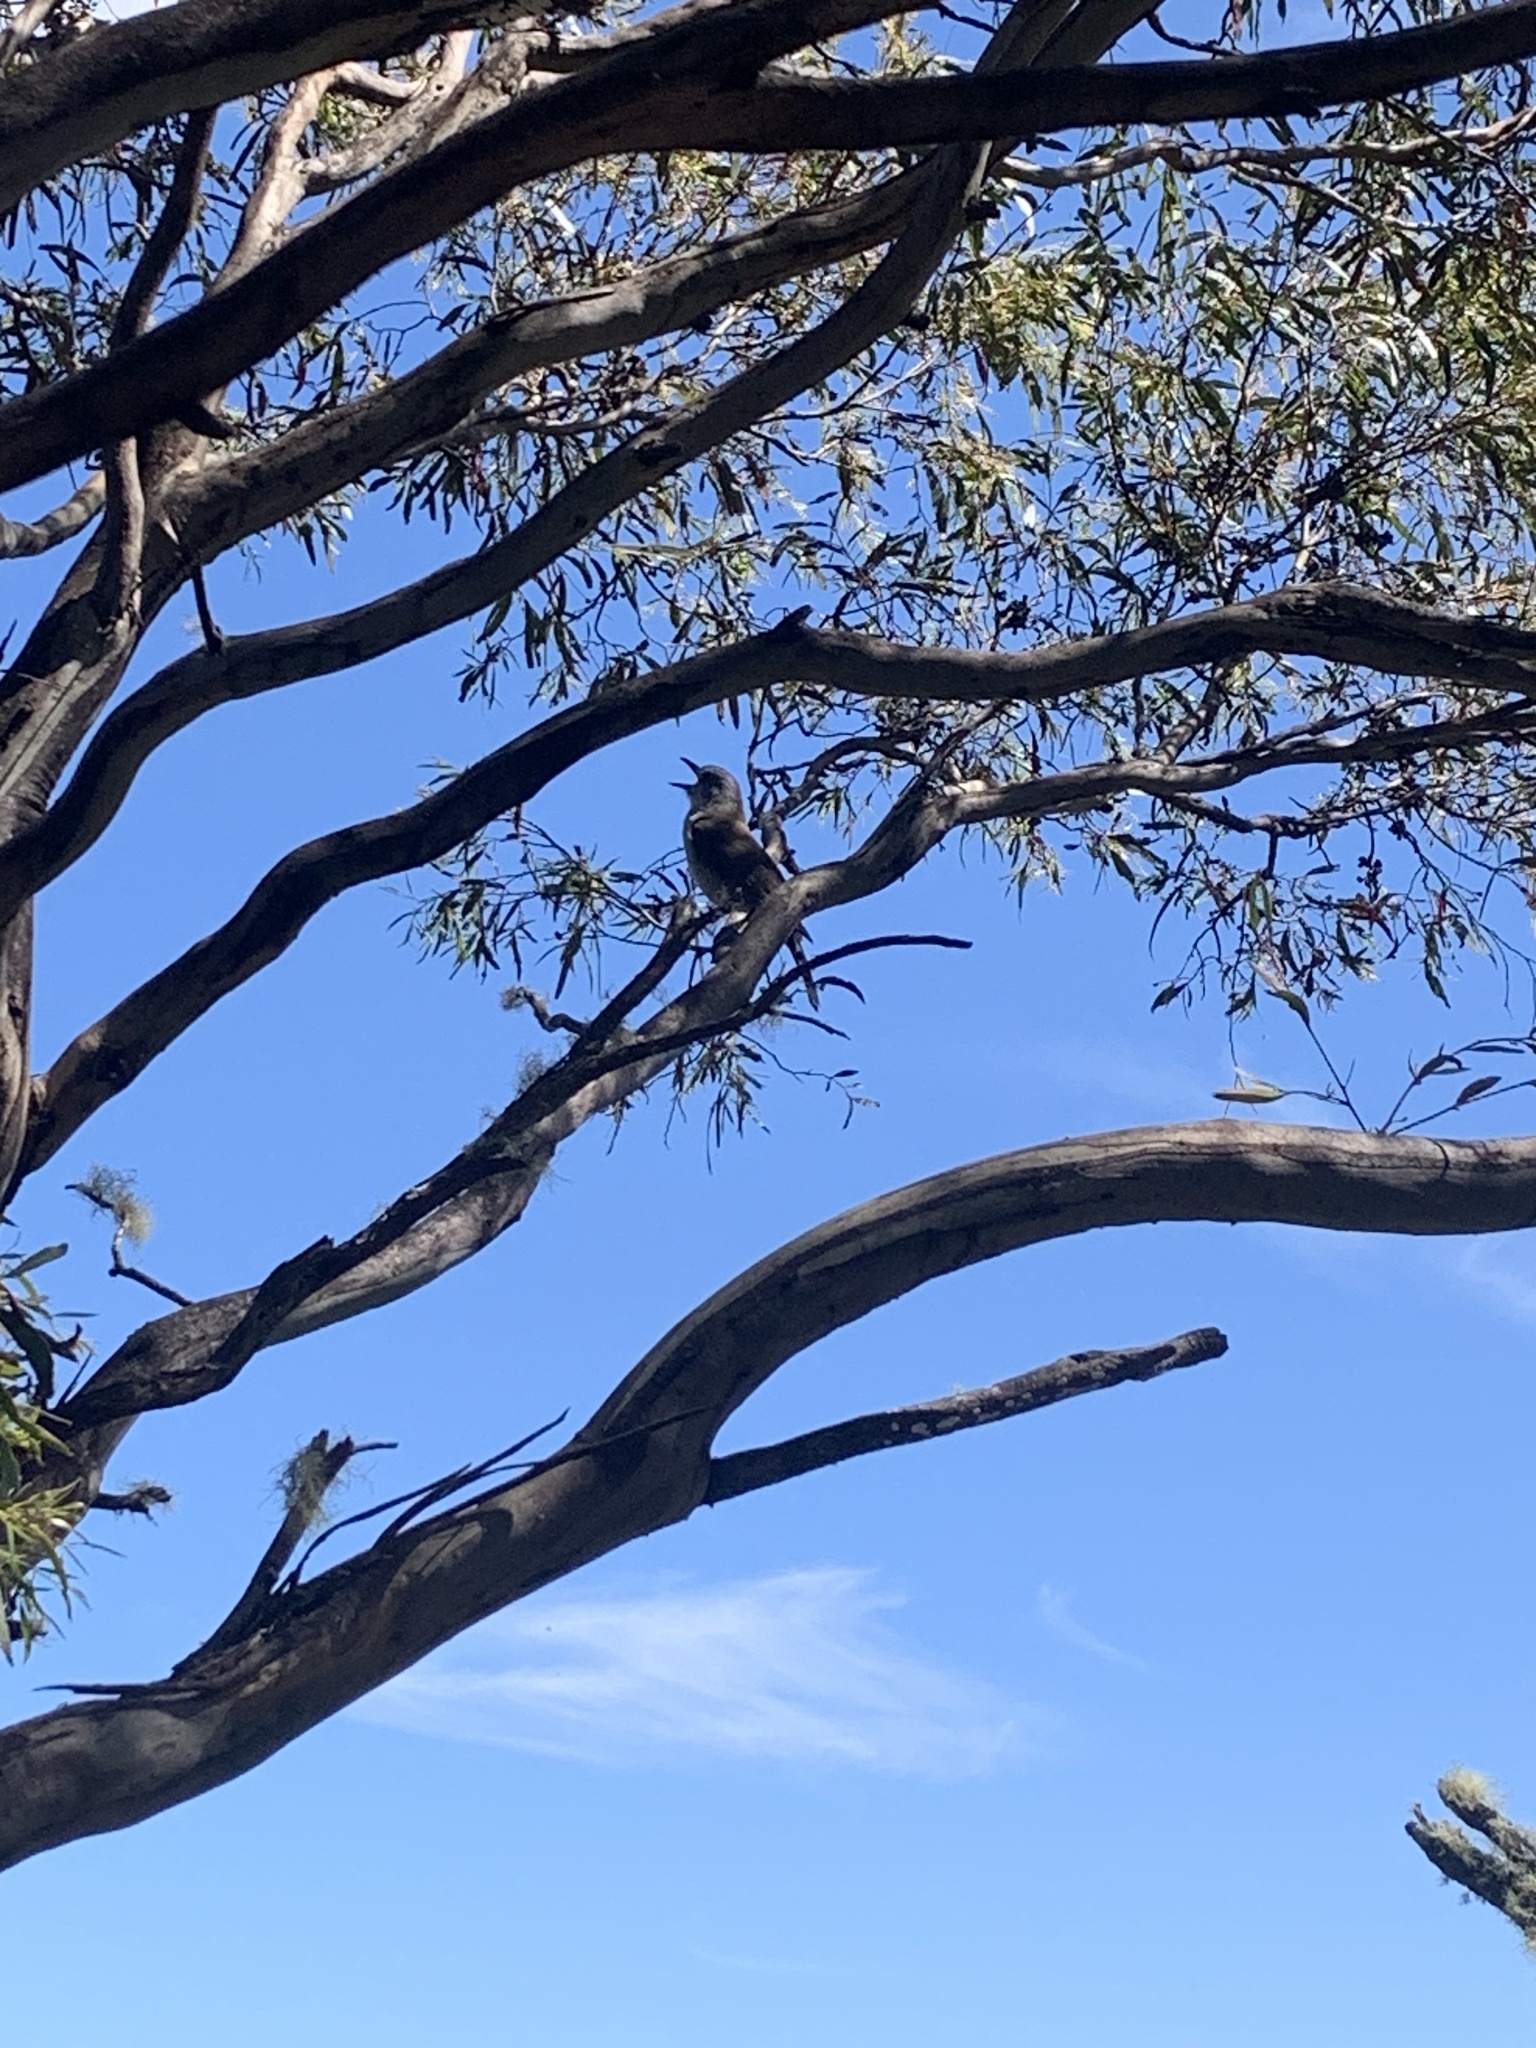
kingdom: Animalia
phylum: Chordata
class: Aves
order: Passeriformes
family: Pachycephalidae
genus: Colluricincla
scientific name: Colluricincla harmonica
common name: Grey shrikethrush
